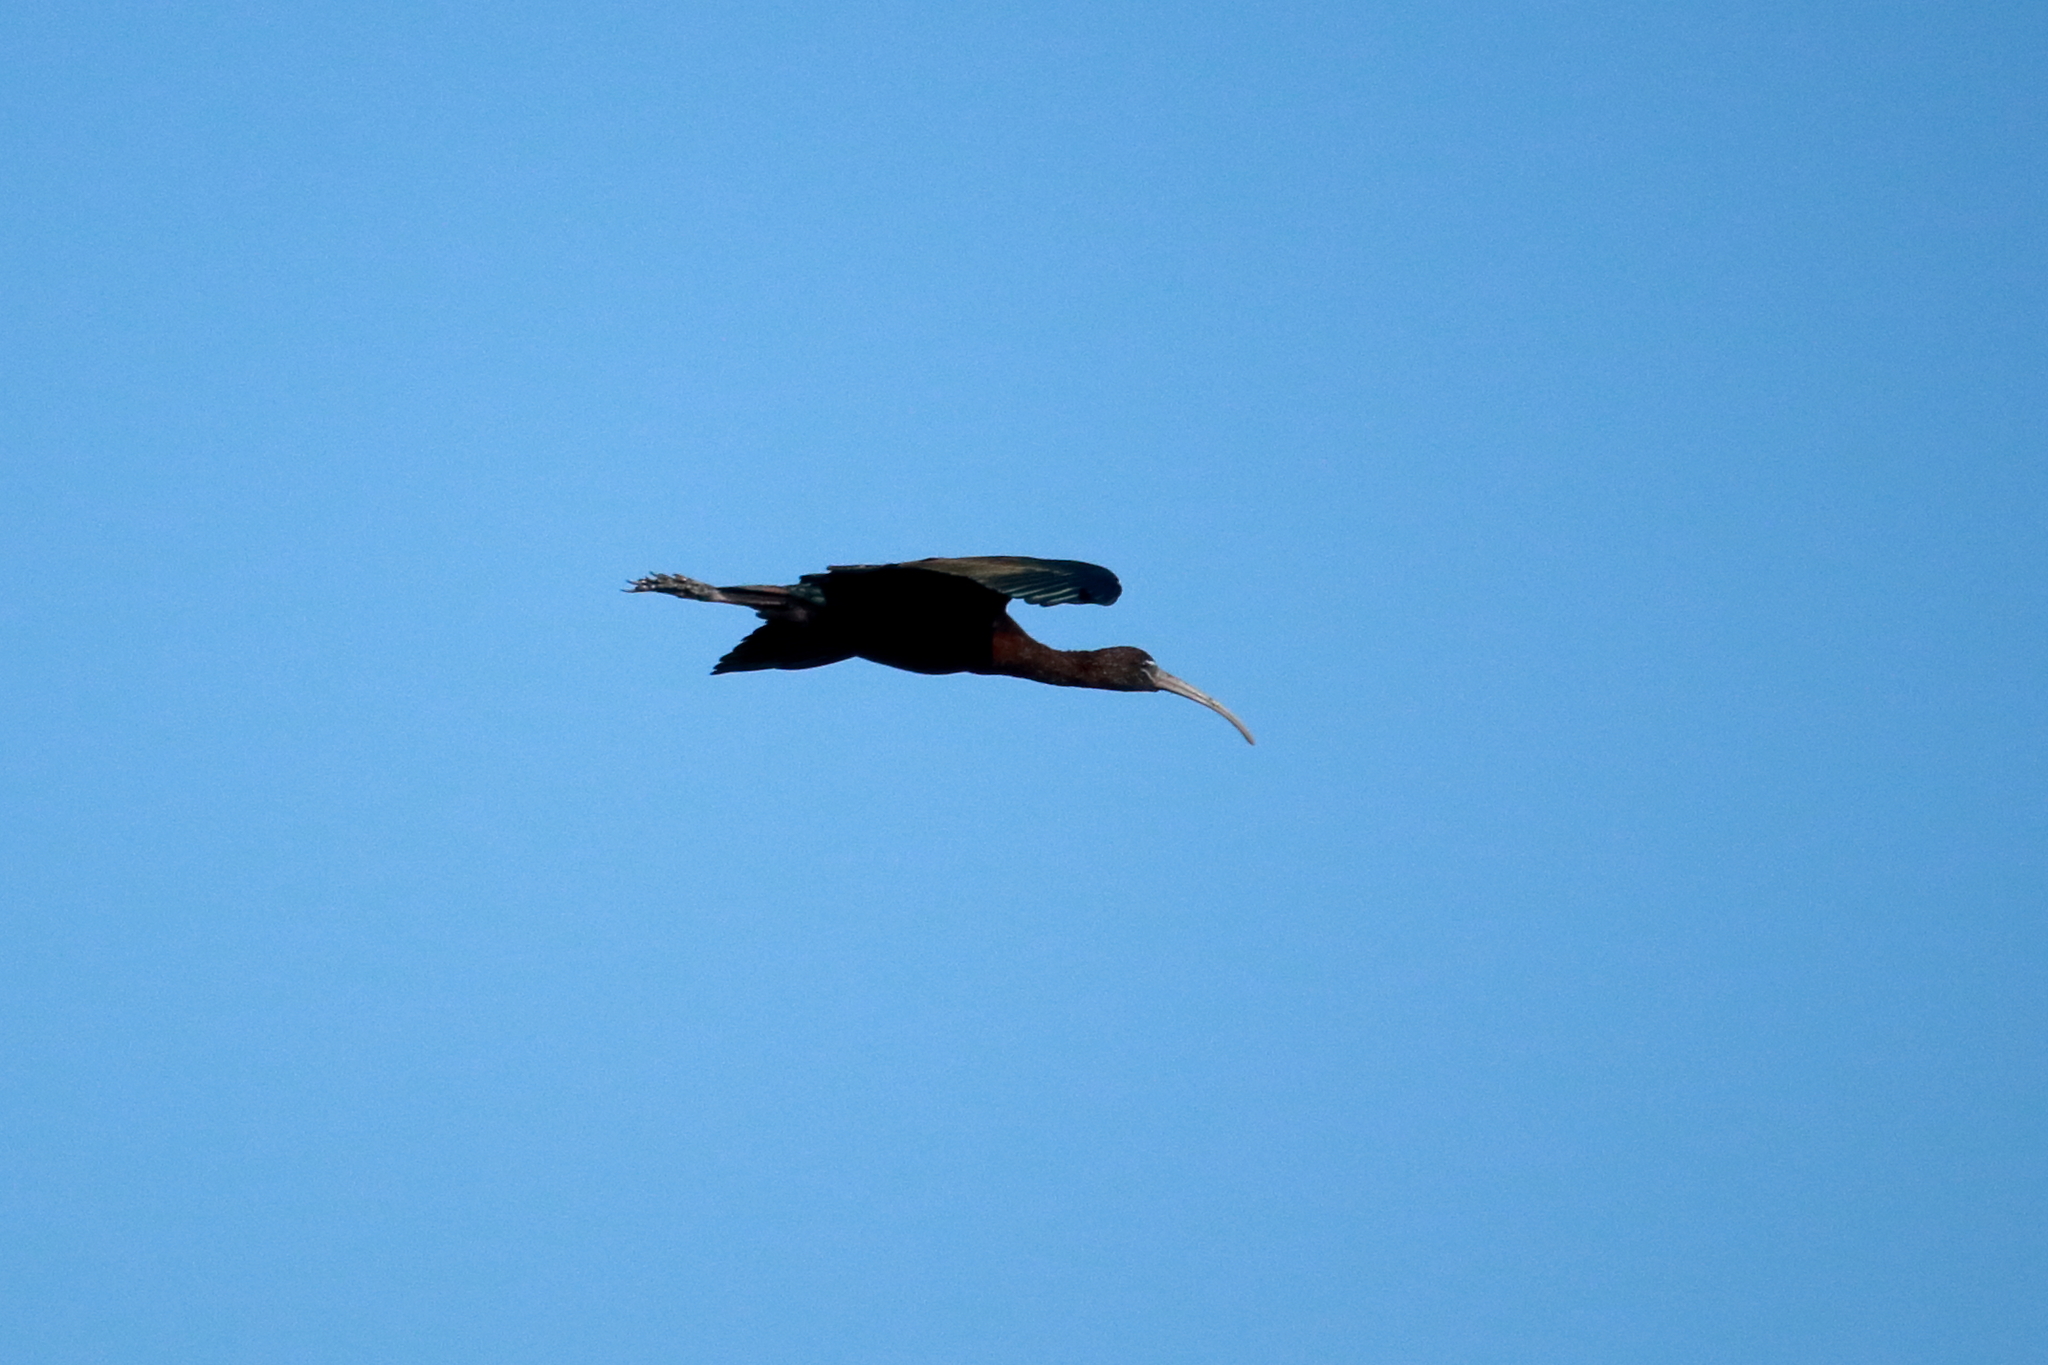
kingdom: Animalia
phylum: Chordata
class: Aves
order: Pelecaniformes
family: Threskiornithidae
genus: Plegadis
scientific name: Plegadis falcinellus
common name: Glossy ibis
